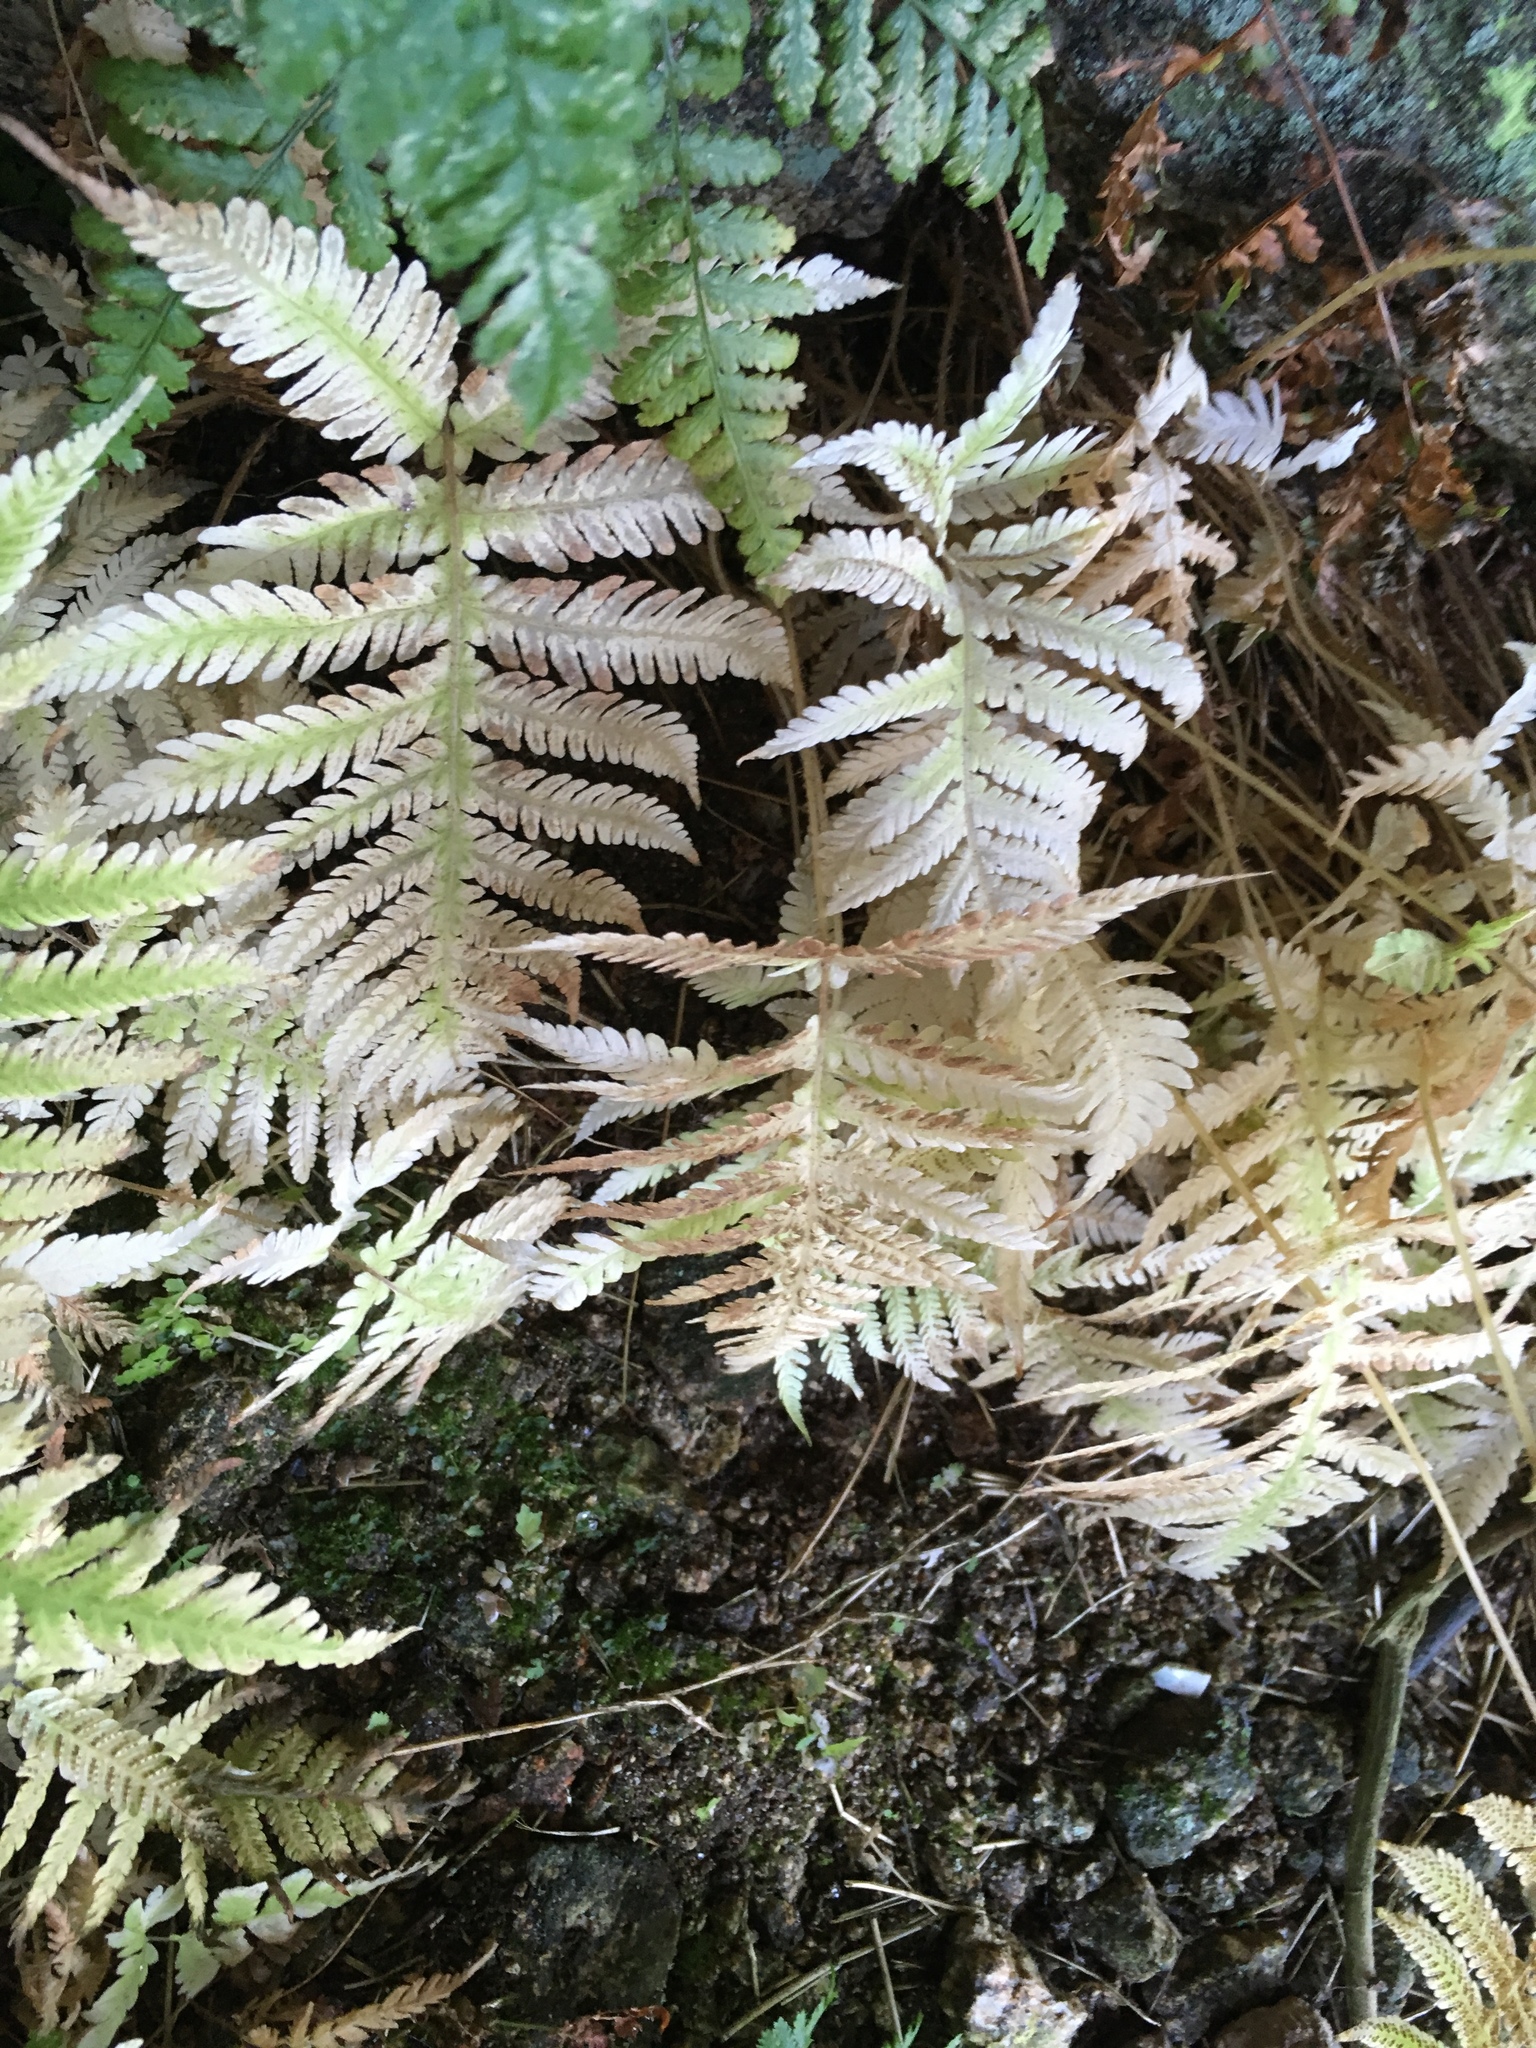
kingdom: Plantae
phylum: Tracheophyta
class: Polypodiopsida
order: Polypodiales
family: Thelypteridaceae
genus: Phegopteris
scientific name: Phegopteris connectilis
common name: Beech fern
